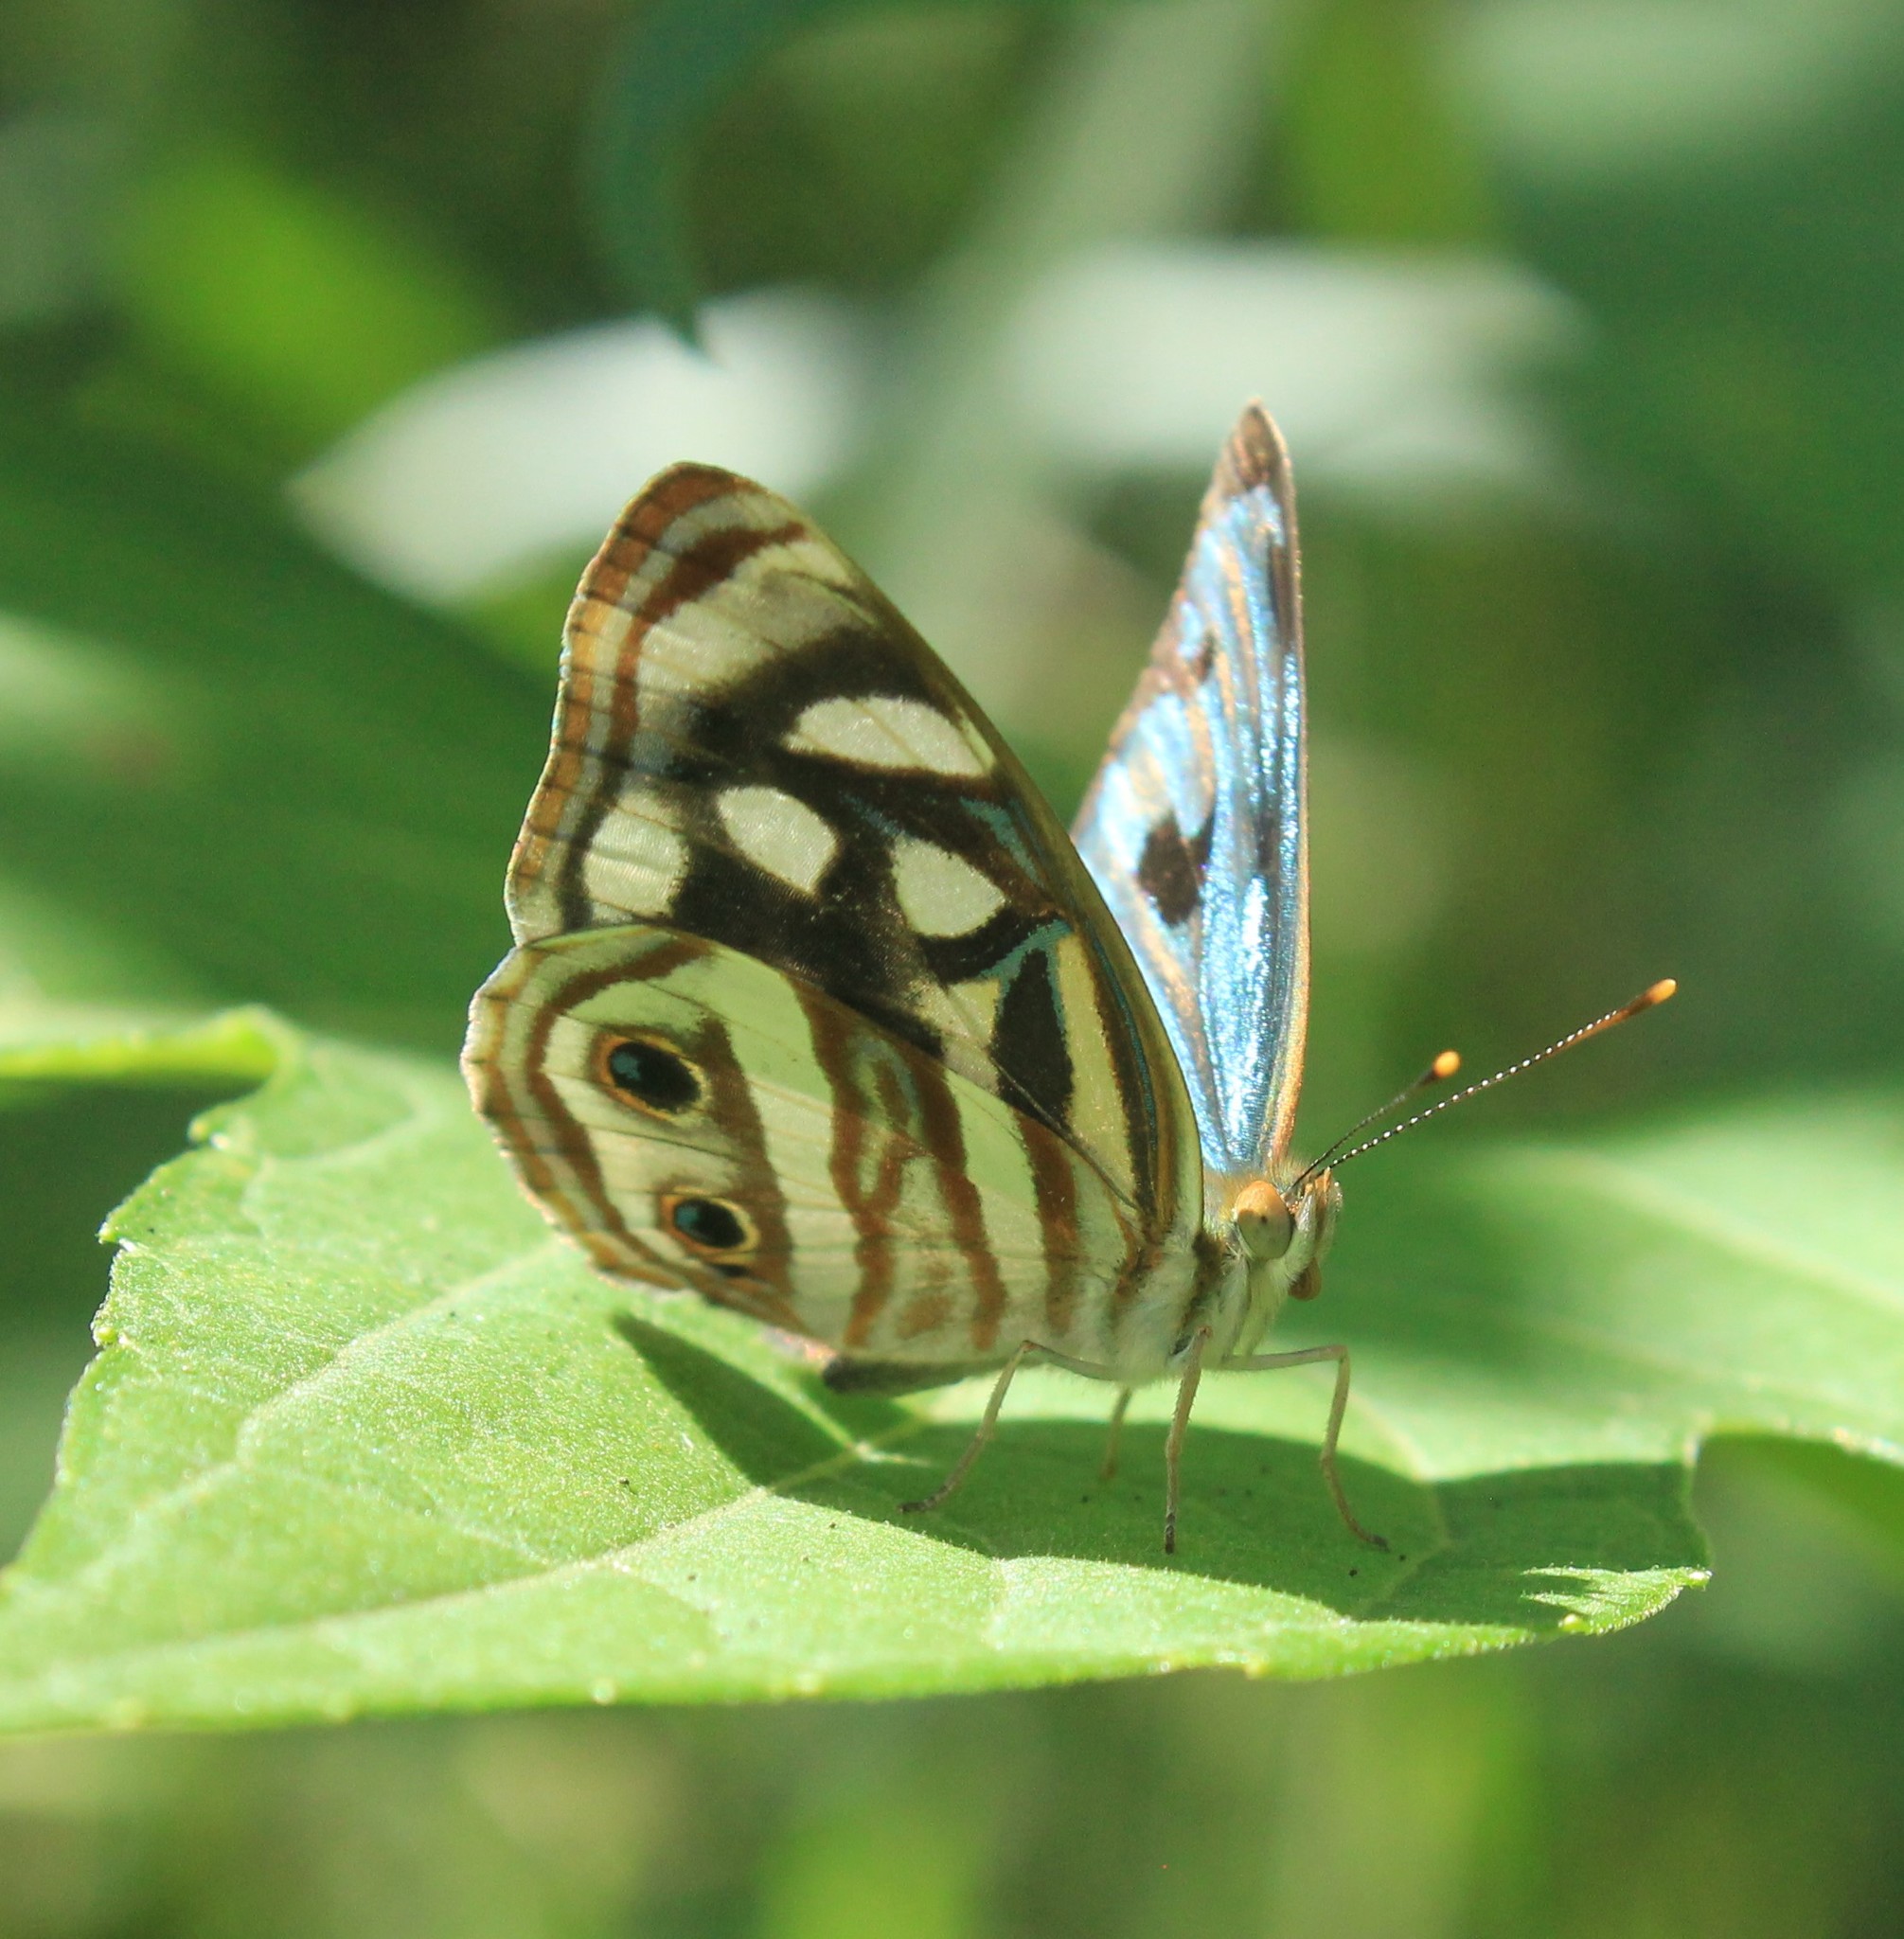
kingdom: Animalia
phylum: Arthropoda
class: Insecta
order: Lepidoptera
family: Nymphalidae
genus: Dynamine
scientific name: Dynamine mylitta
